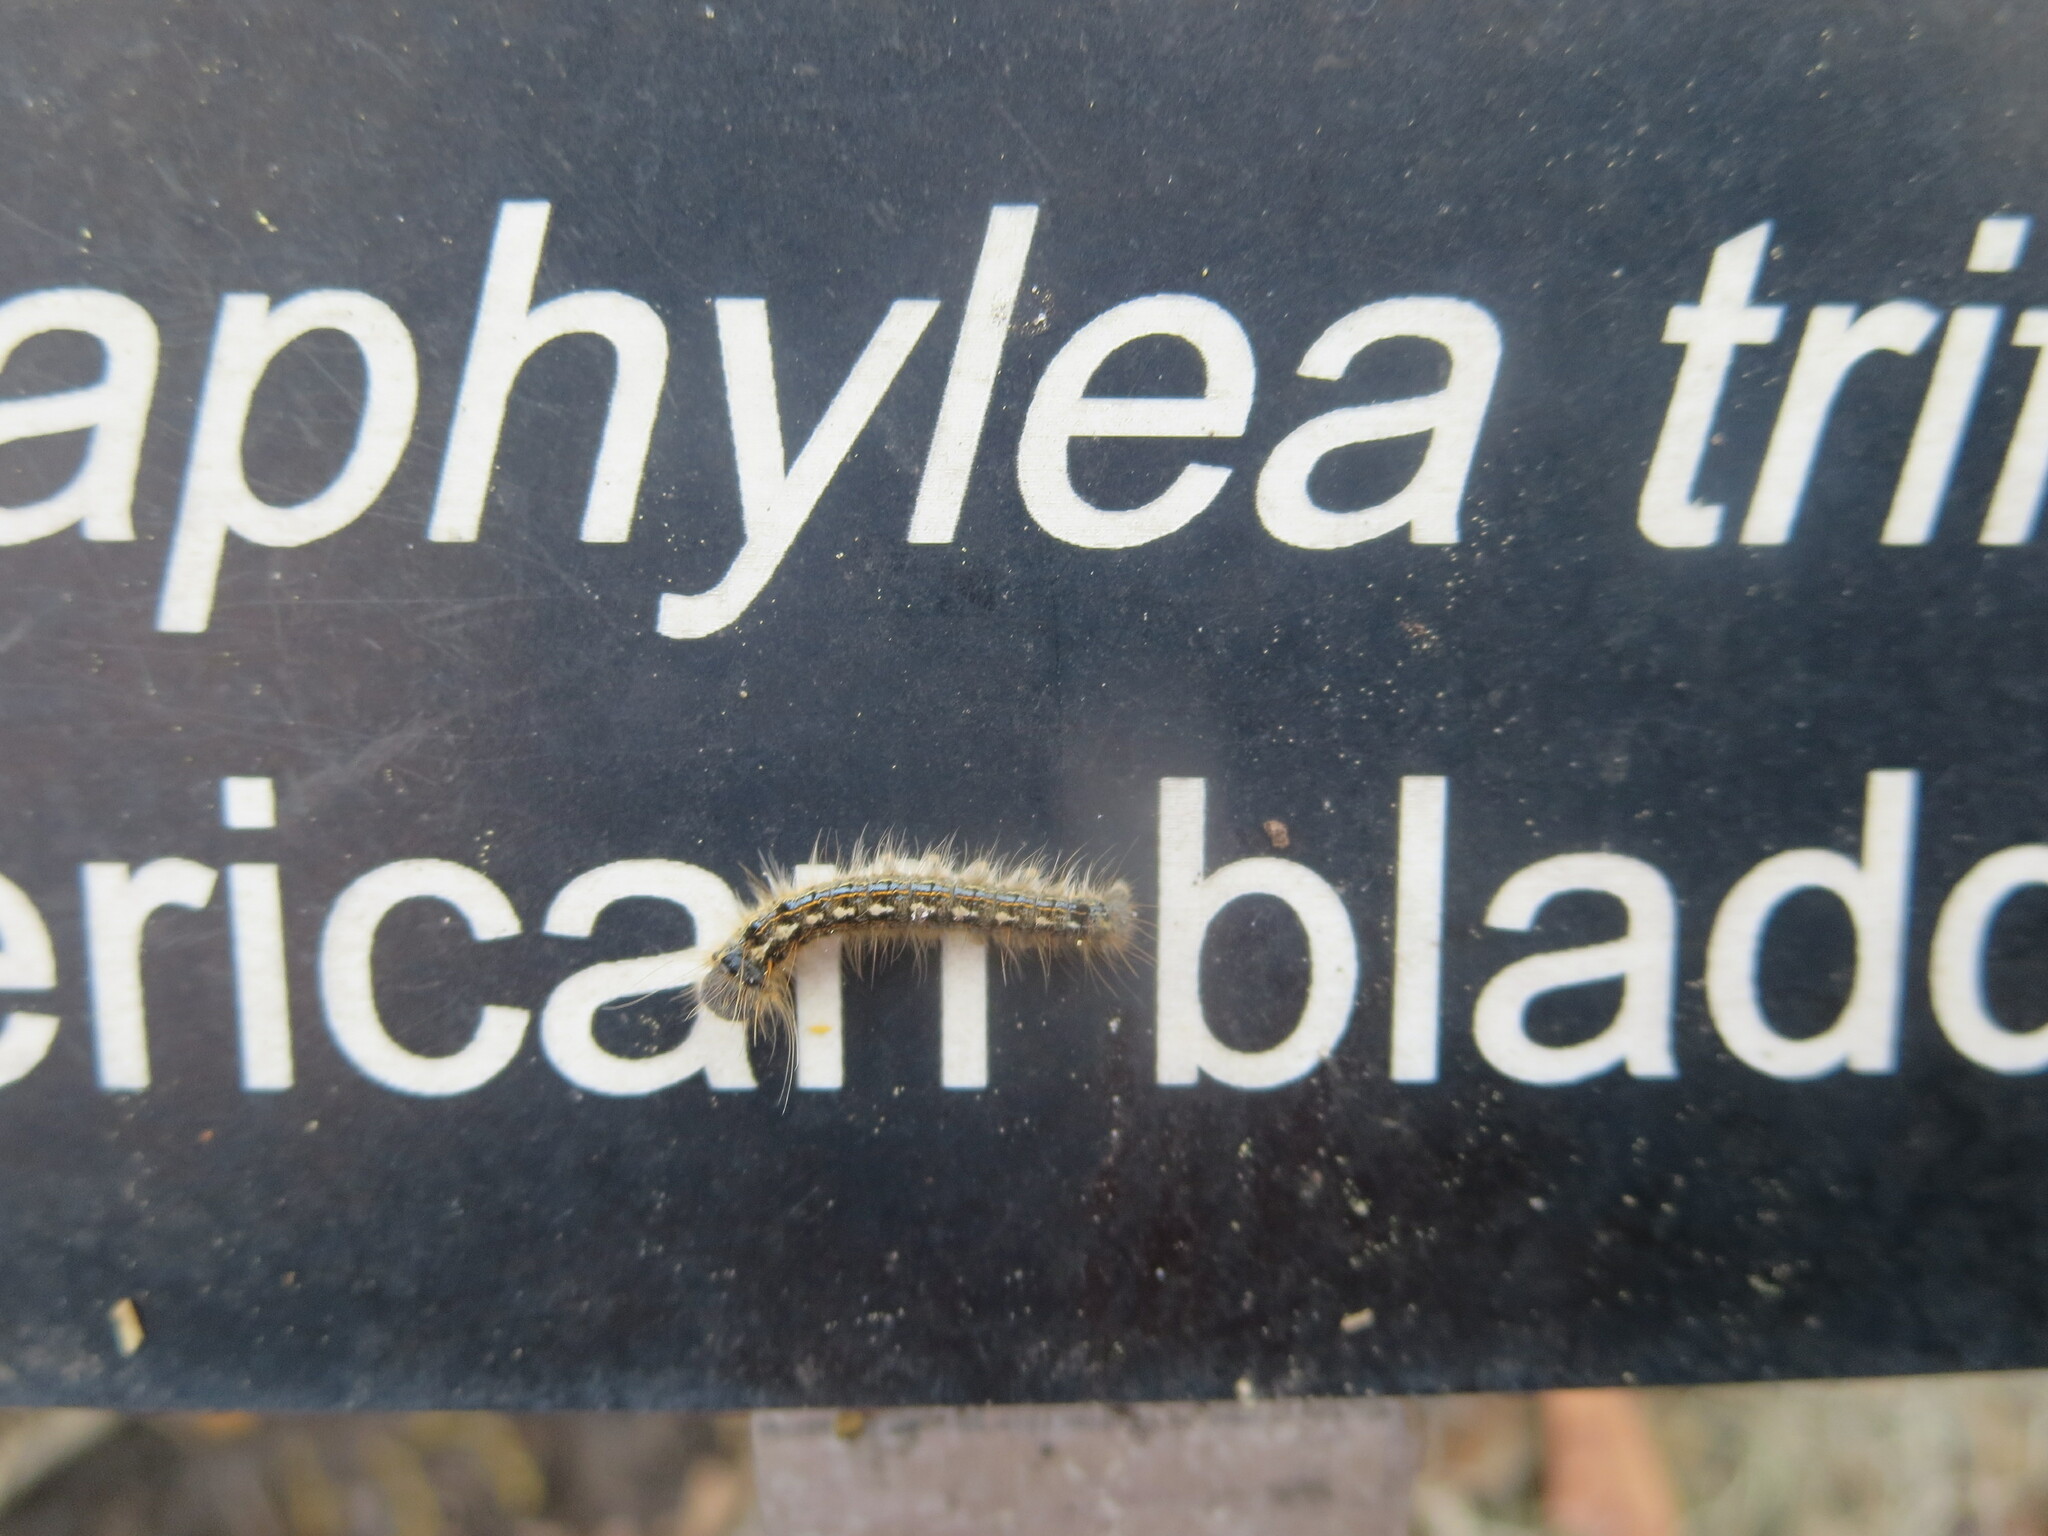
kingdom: Animalia
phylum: Arthropoda
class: Insecta
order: Lepidoptera
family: Lasiocampidae
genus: Malacosoma
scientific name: Malacosoma disstria
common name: Forest tent caterpillar
